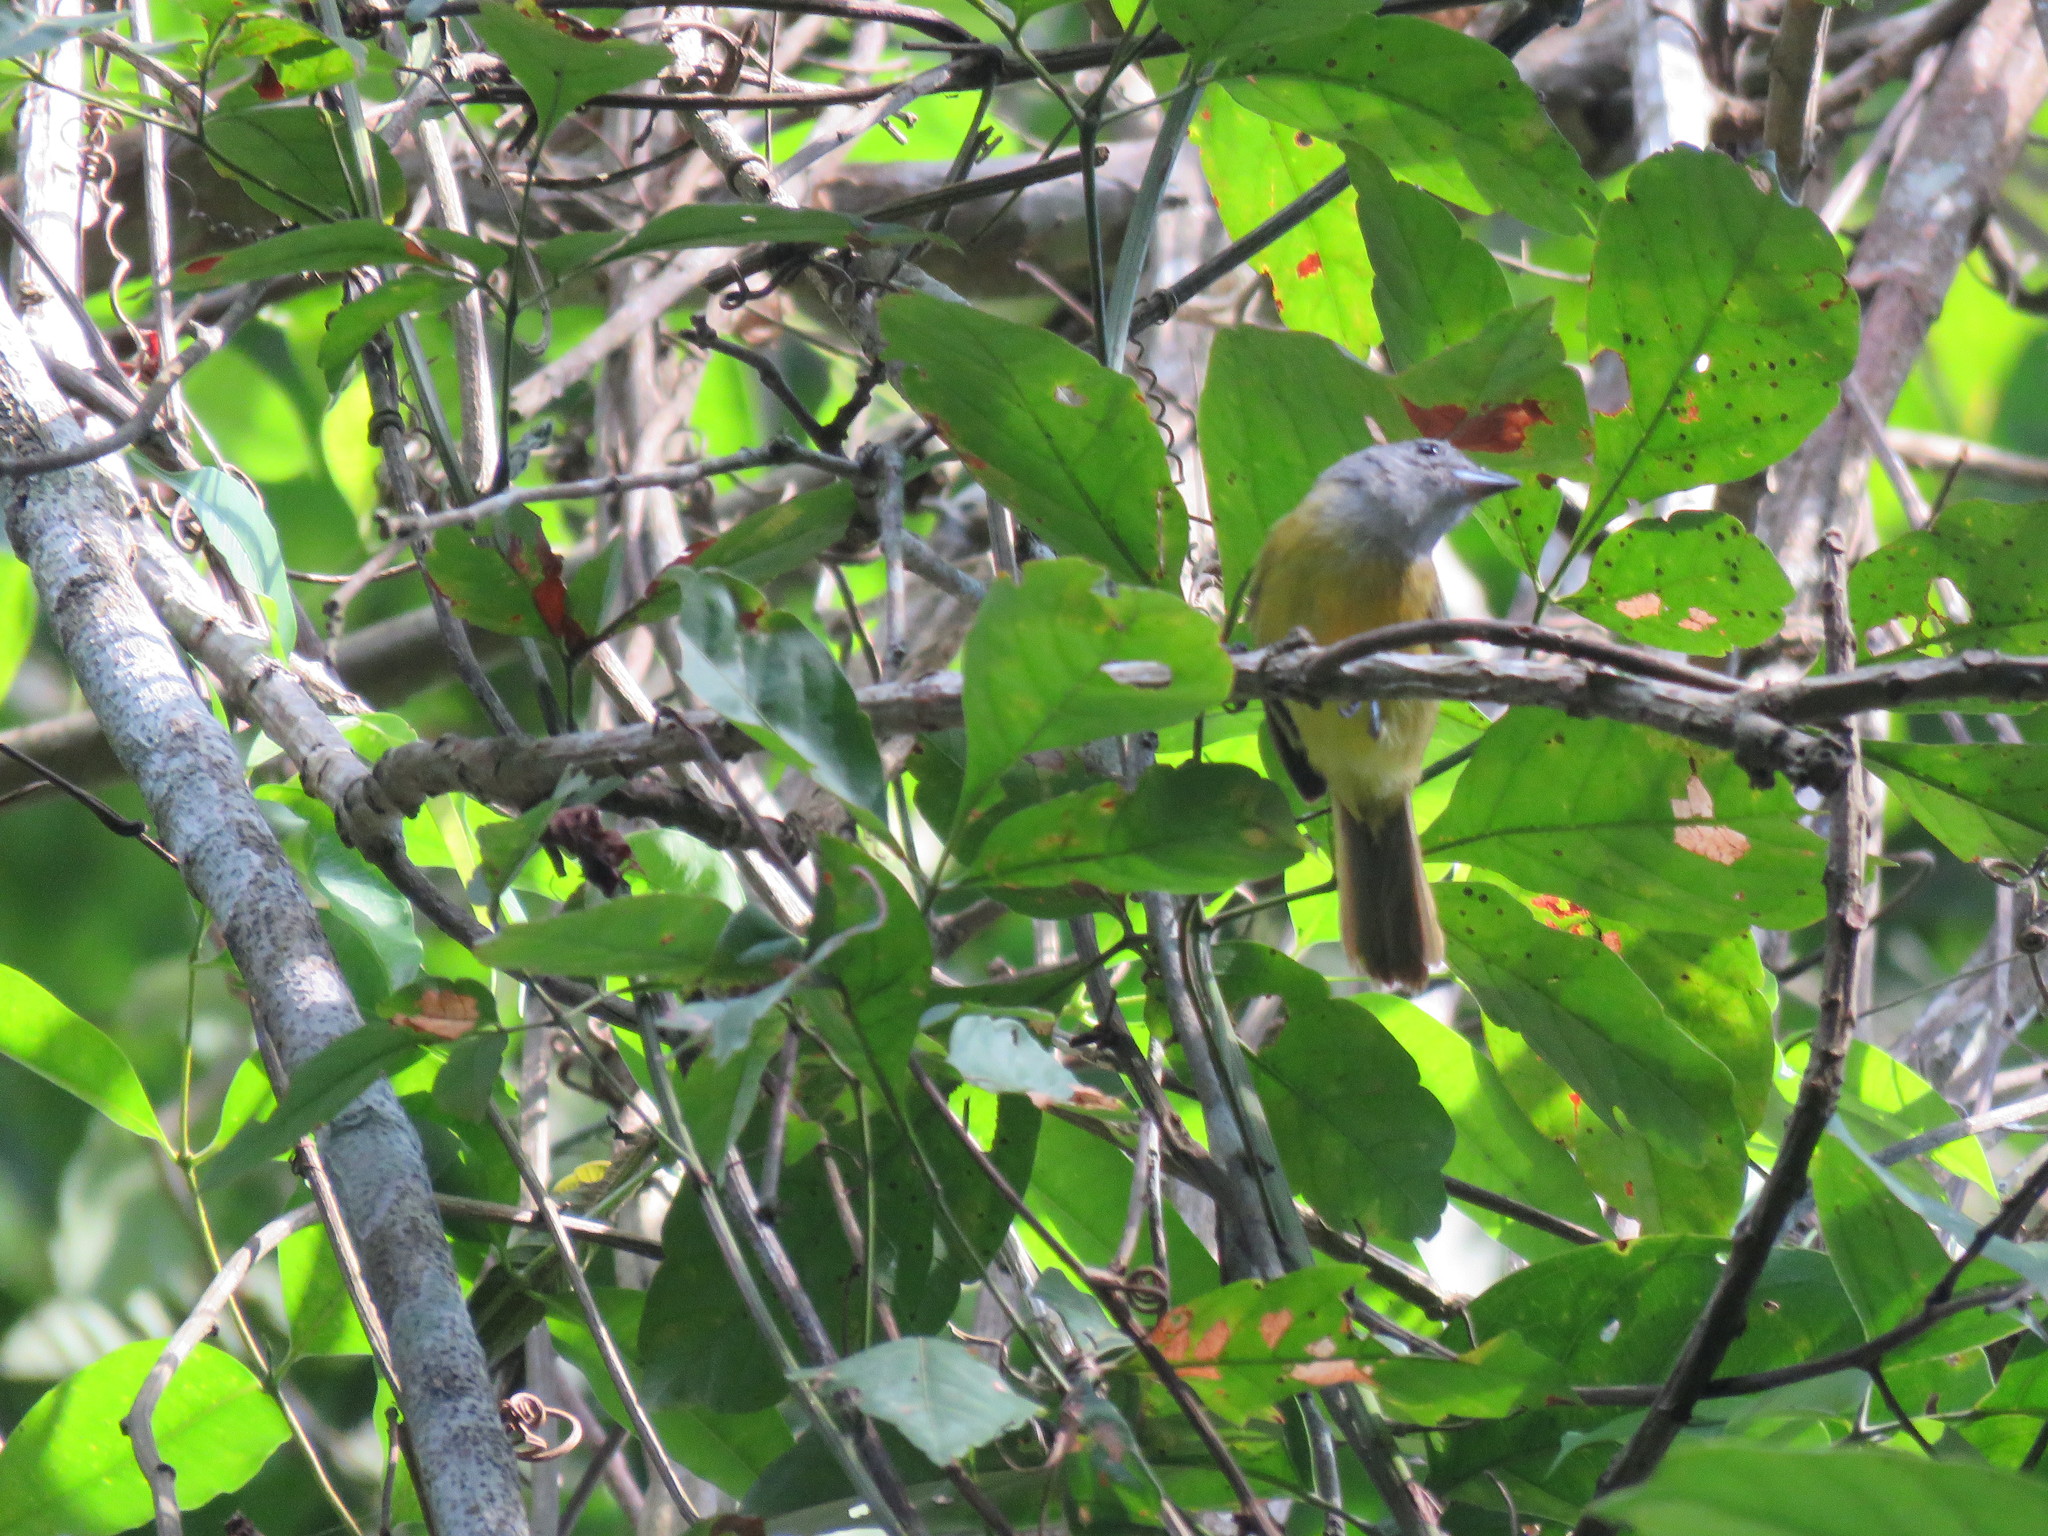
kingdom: Animalia
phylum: Chordata
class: Aves
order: Passeriformes
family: Thraupidae
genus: Loriotus
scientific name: Loriotus luctuosus
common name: White-shouldered tanager
